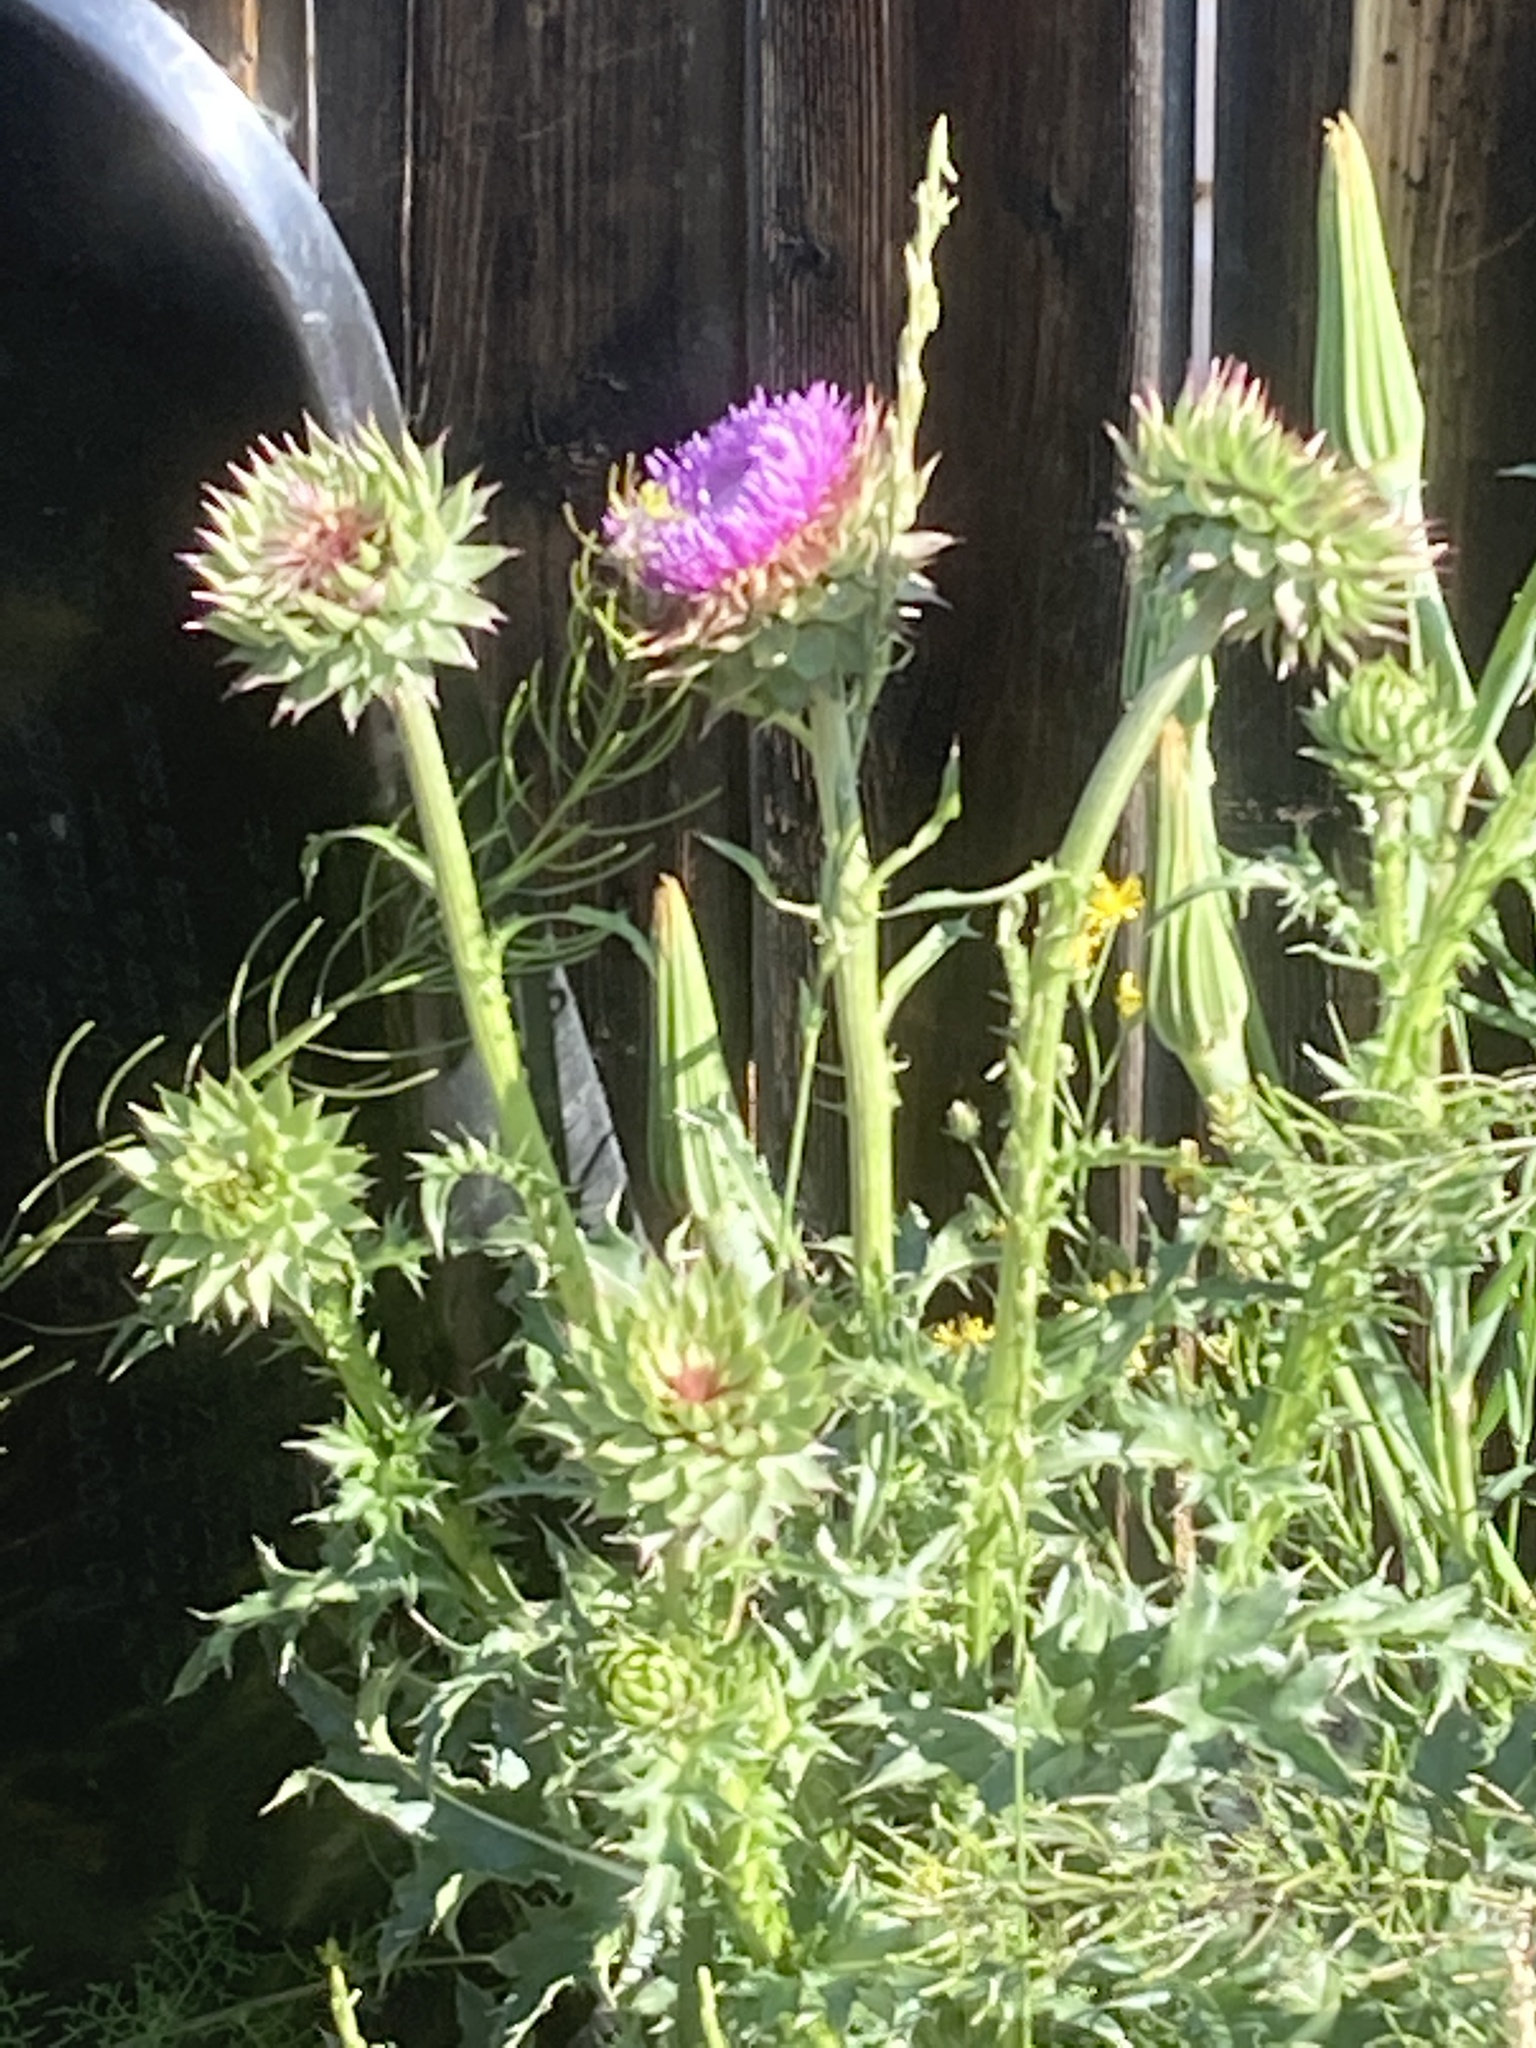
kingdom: Plantae
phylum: Tracheophyta
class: Magnoliopsida
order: Asterales
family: Asteraceae
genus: Carduus
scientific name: Carduus nutans
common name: Musk thistle
